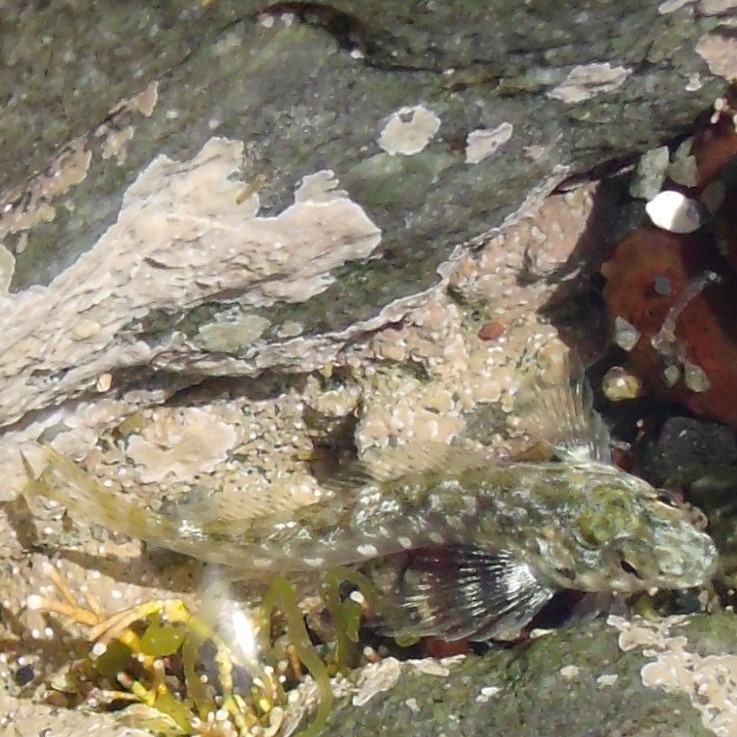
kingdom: Animalia
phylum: Chordata
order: Perciformes
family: Tripterygiidae
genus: Bellapiscis
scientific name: Bellapiscis medius
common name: Twister
